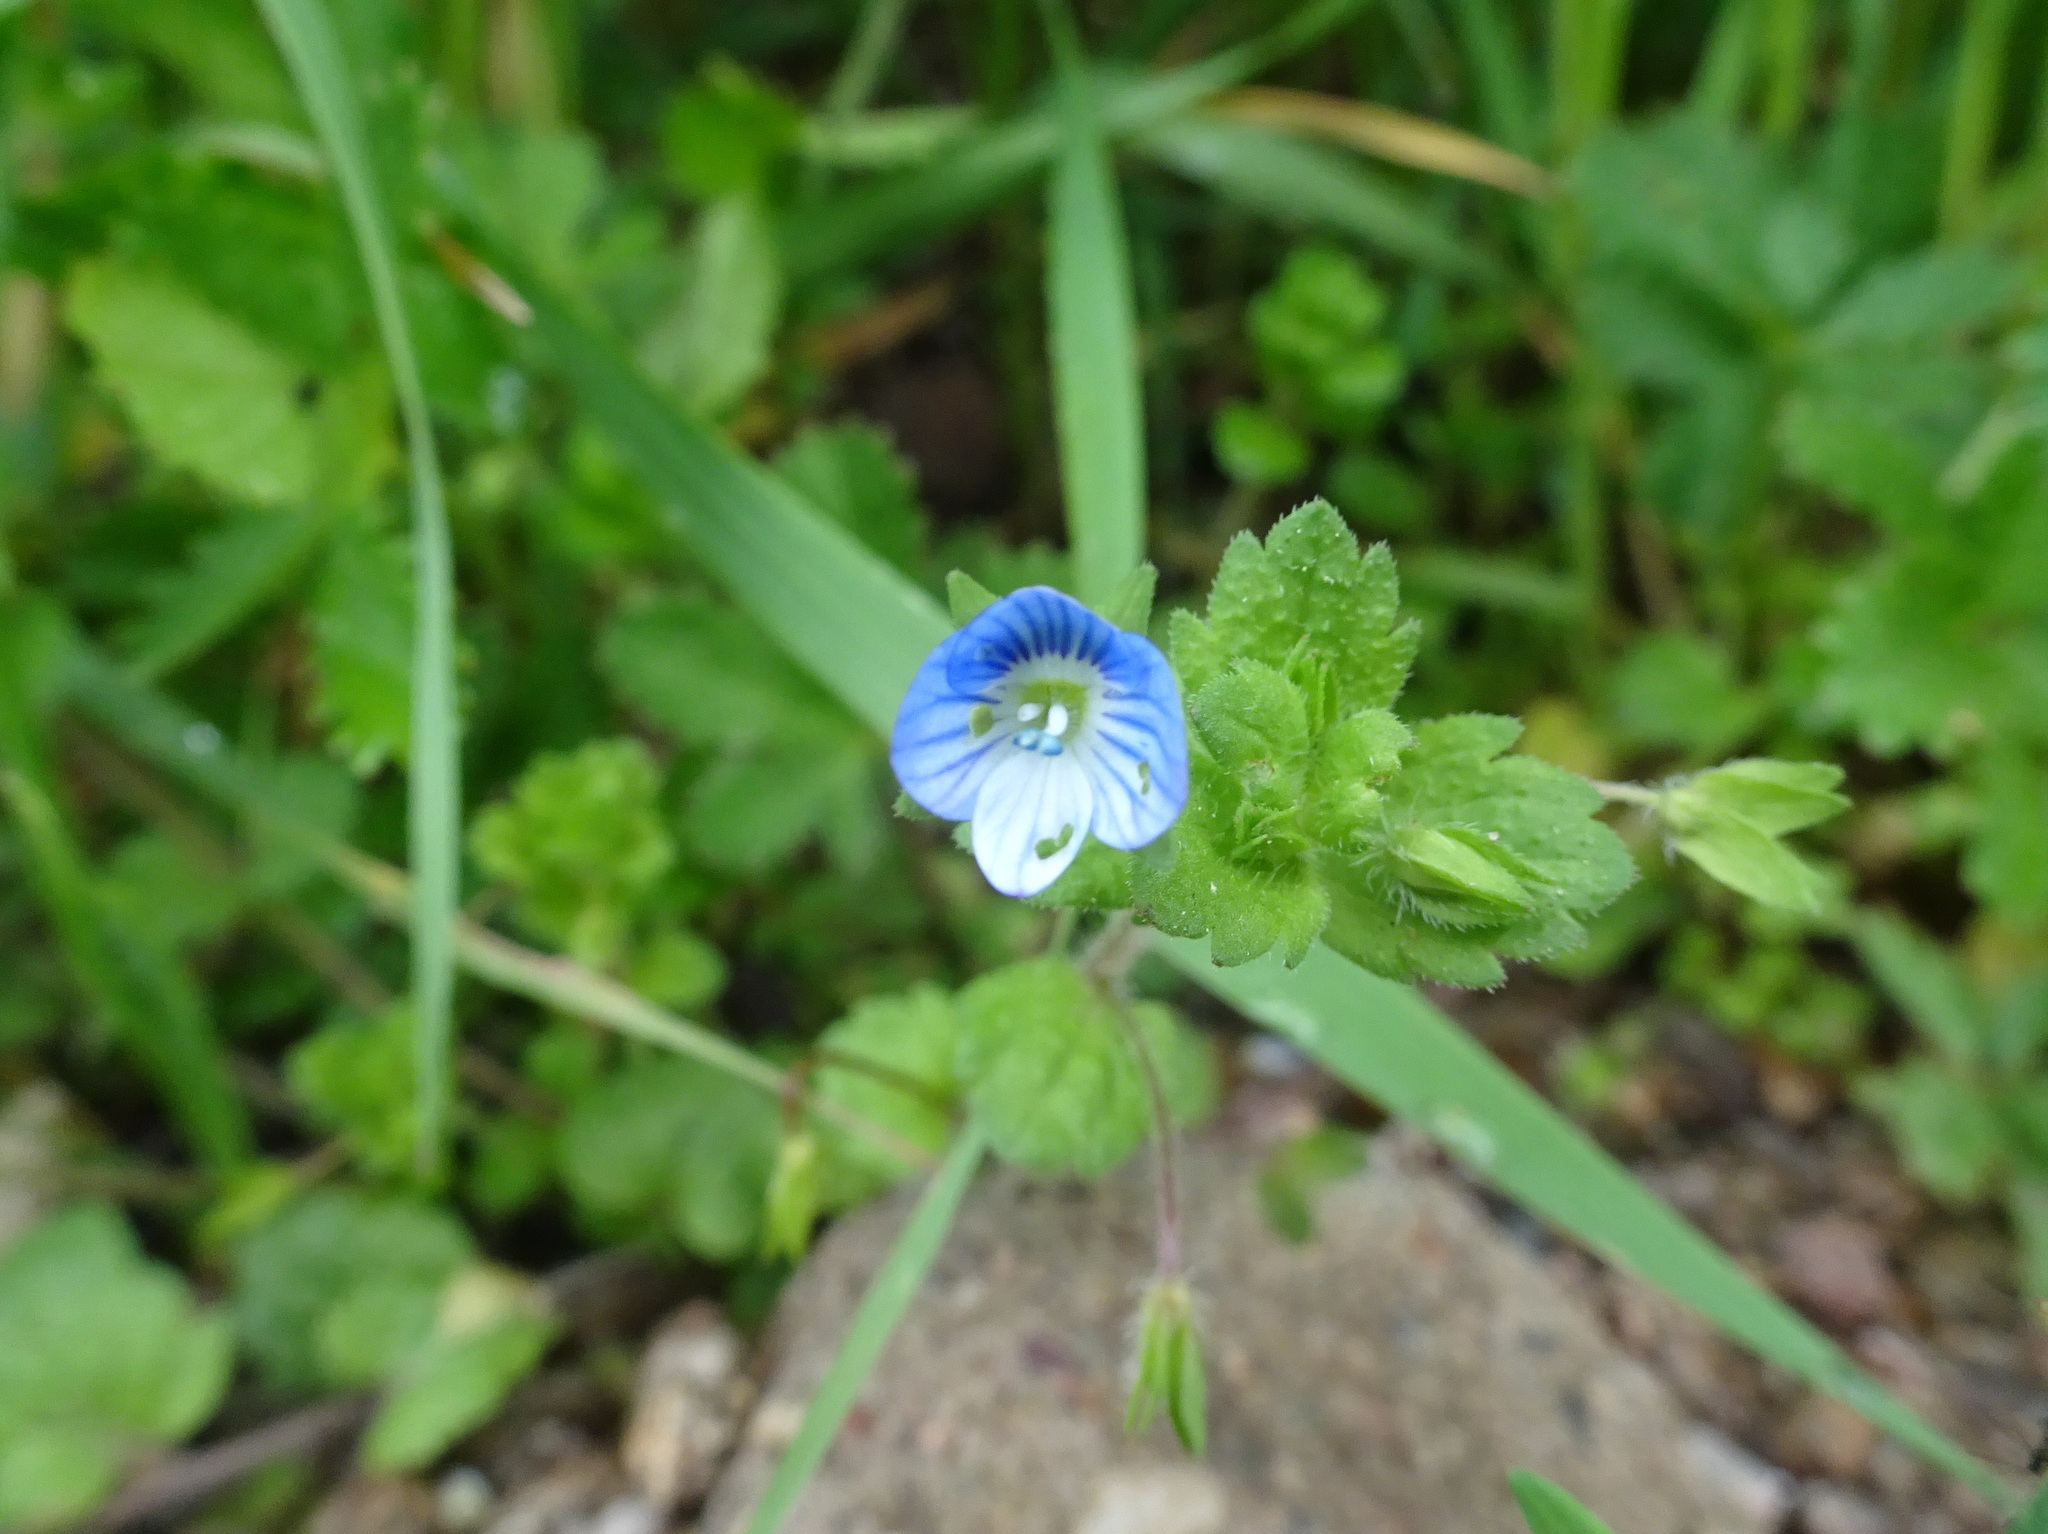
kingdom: Plantae
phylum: Tracheophyta
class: Magnoliopsida
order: Lamiales
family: Plantaginaceae
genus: Veronica
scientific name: Veronica persica
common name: Common field-speedwell
